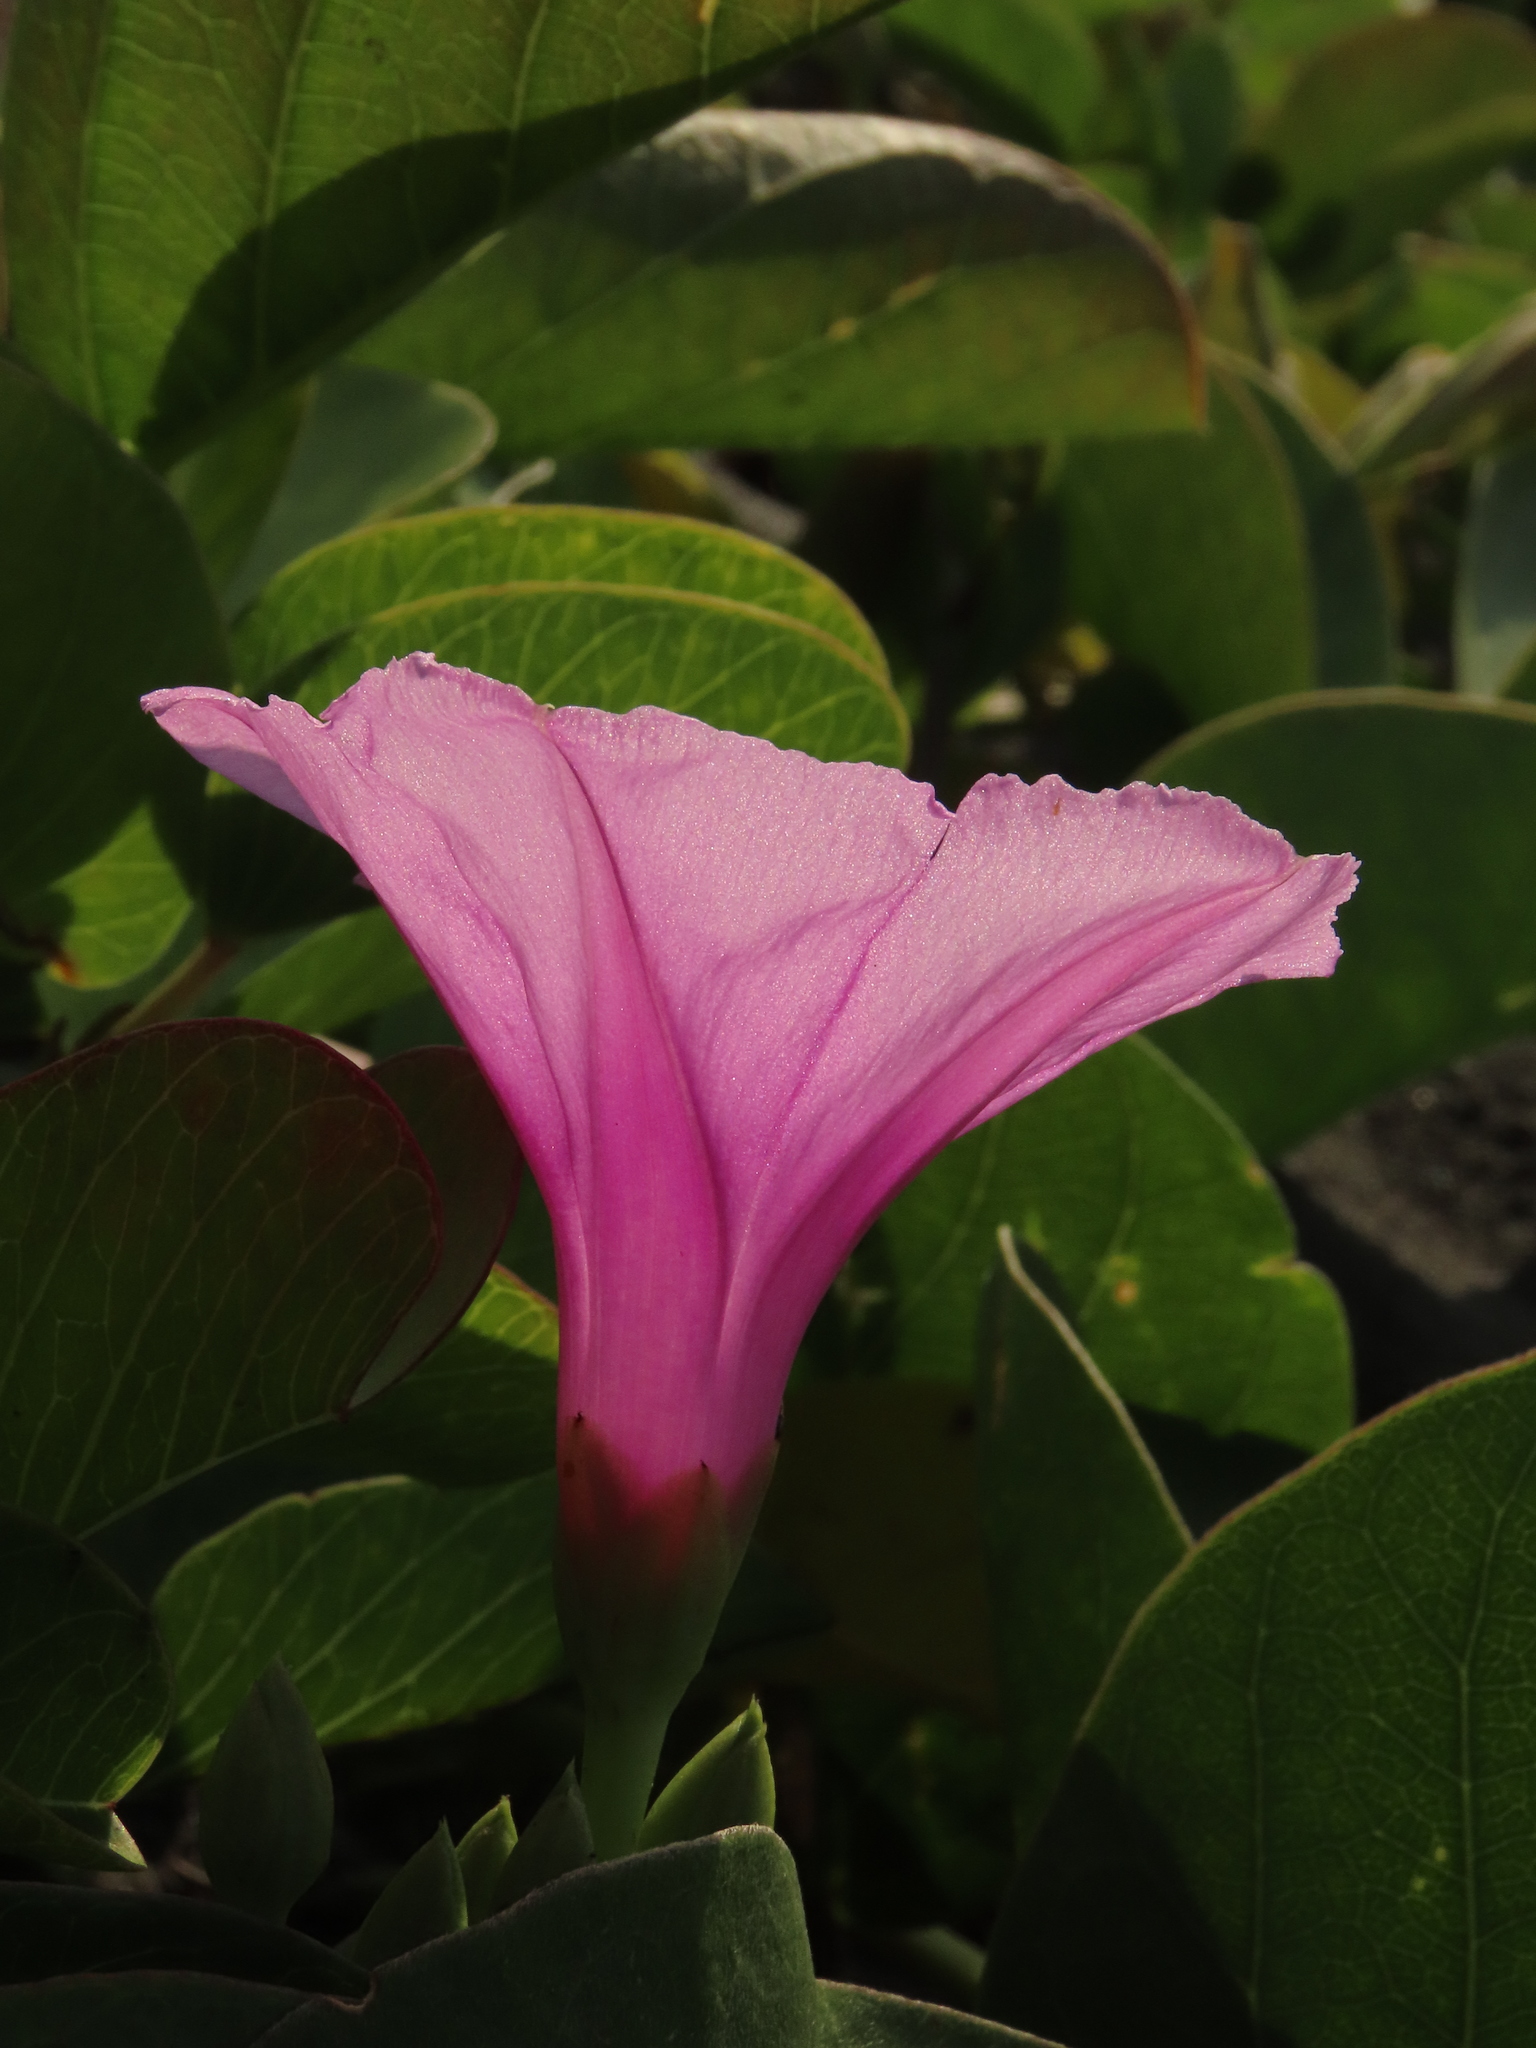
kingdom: Plantae
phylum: Tracheophyta
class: Magnoliopsida
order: Solanales
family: Convolvulaceae
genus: Ipomoea
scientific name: Ipomoea pes-caprae
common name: Beach morning glory
